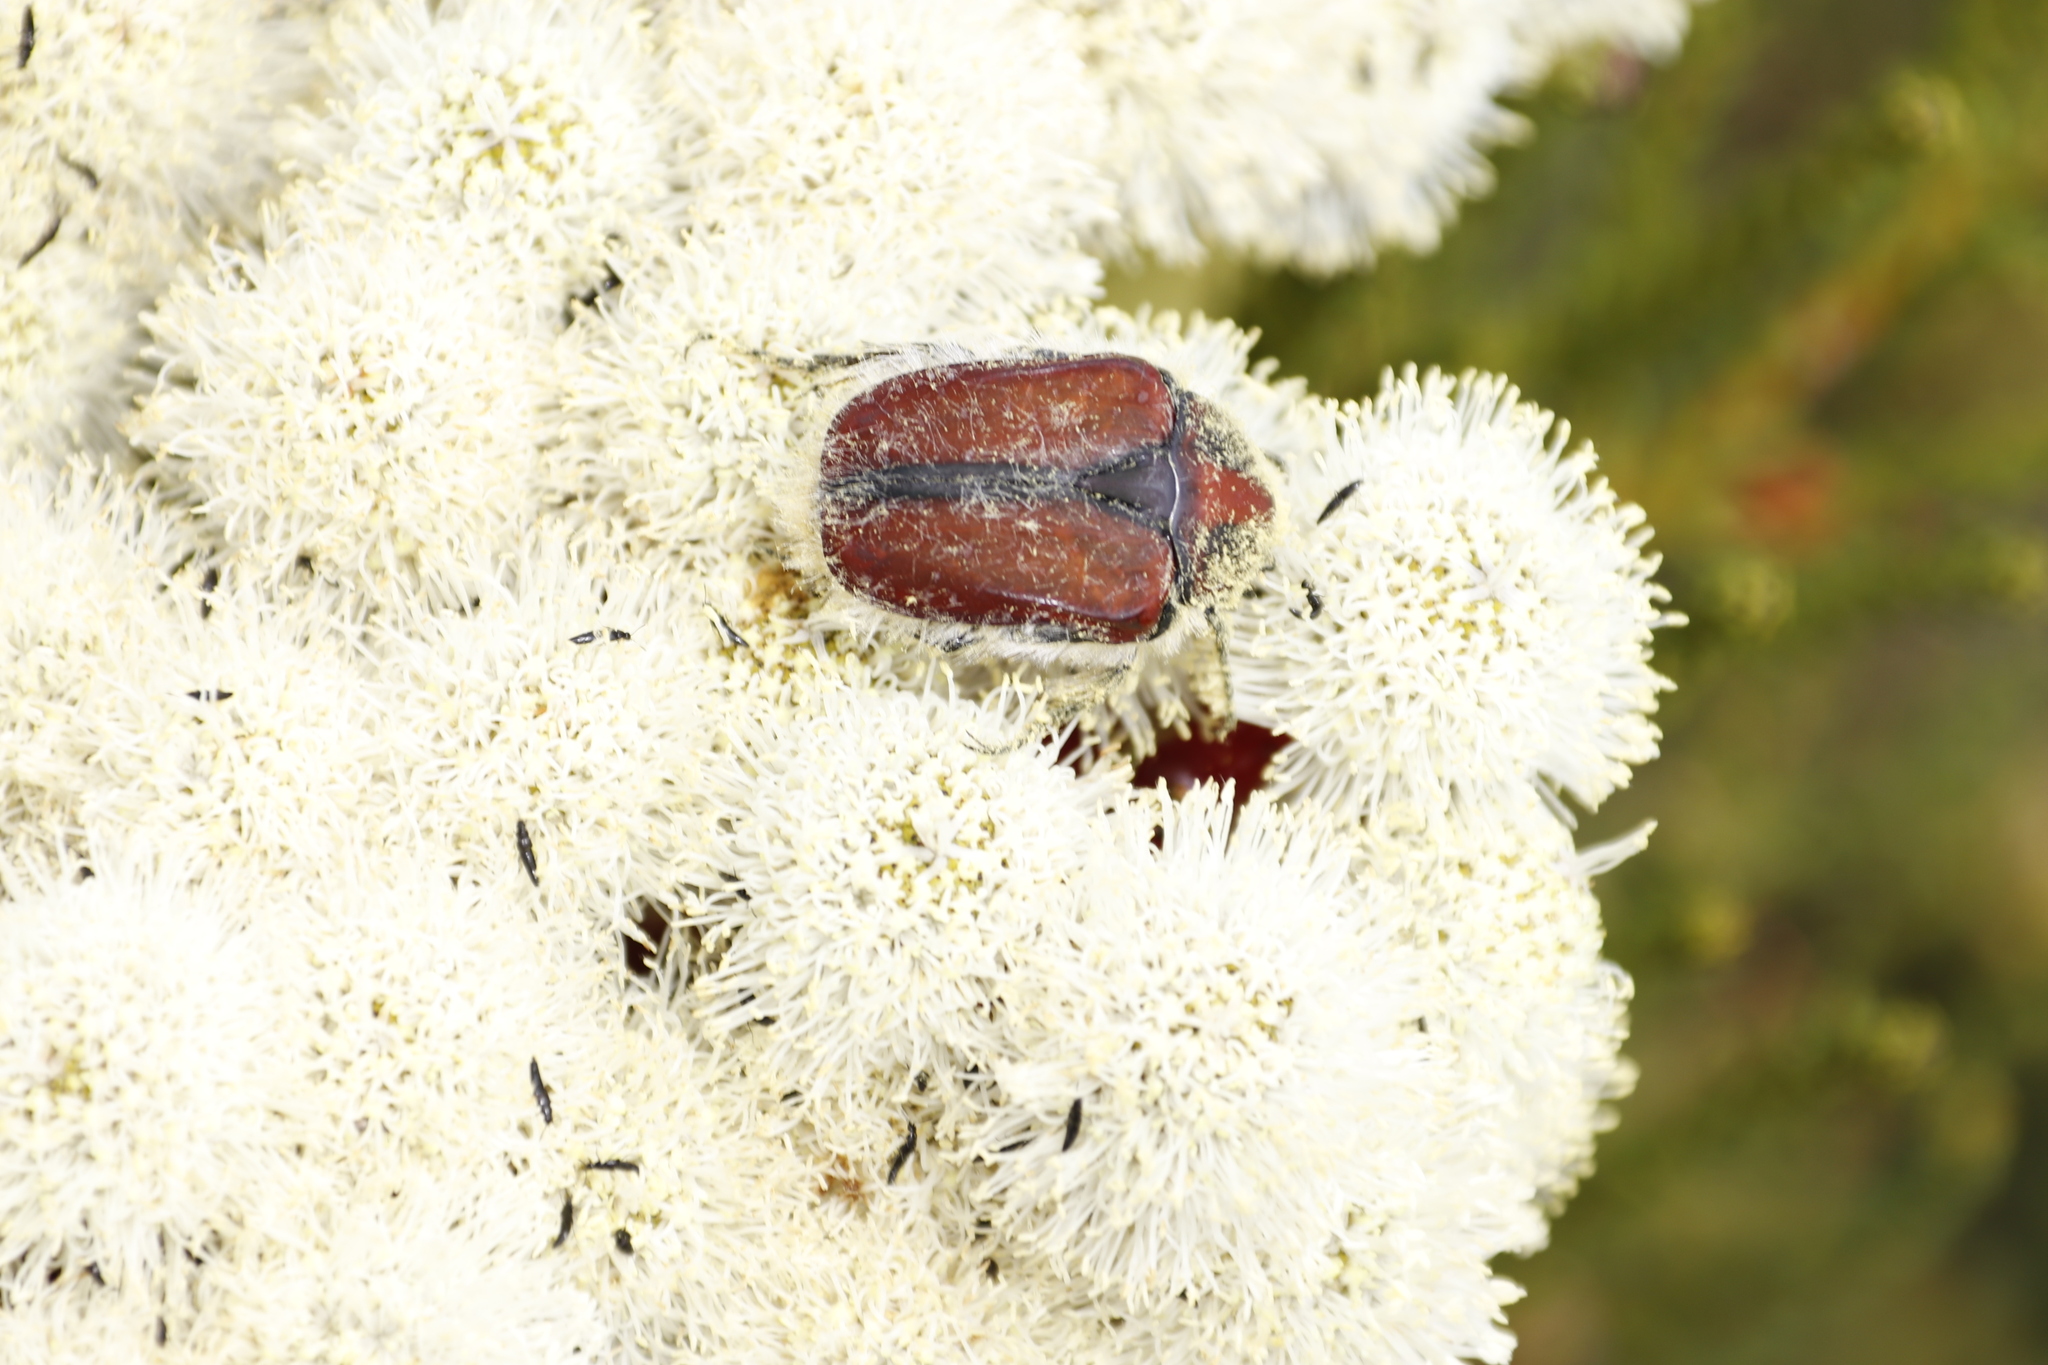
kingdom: Animalia
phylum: Arthropoda
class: Insecta
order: Coleoptera
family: Scarabaeidae
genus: Trichostetha
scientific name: Trichostetha signata
